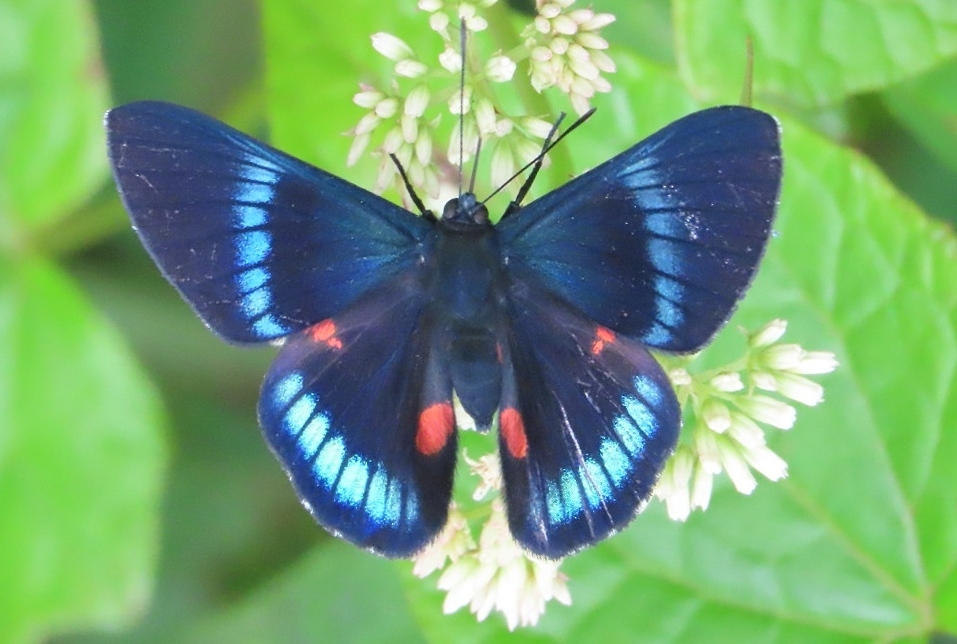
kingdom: Animalia
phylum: Arthropoda
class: Insecta
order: Lepidoptera
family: Lycaenidae
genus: Necyria
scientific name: Necyria bellona
